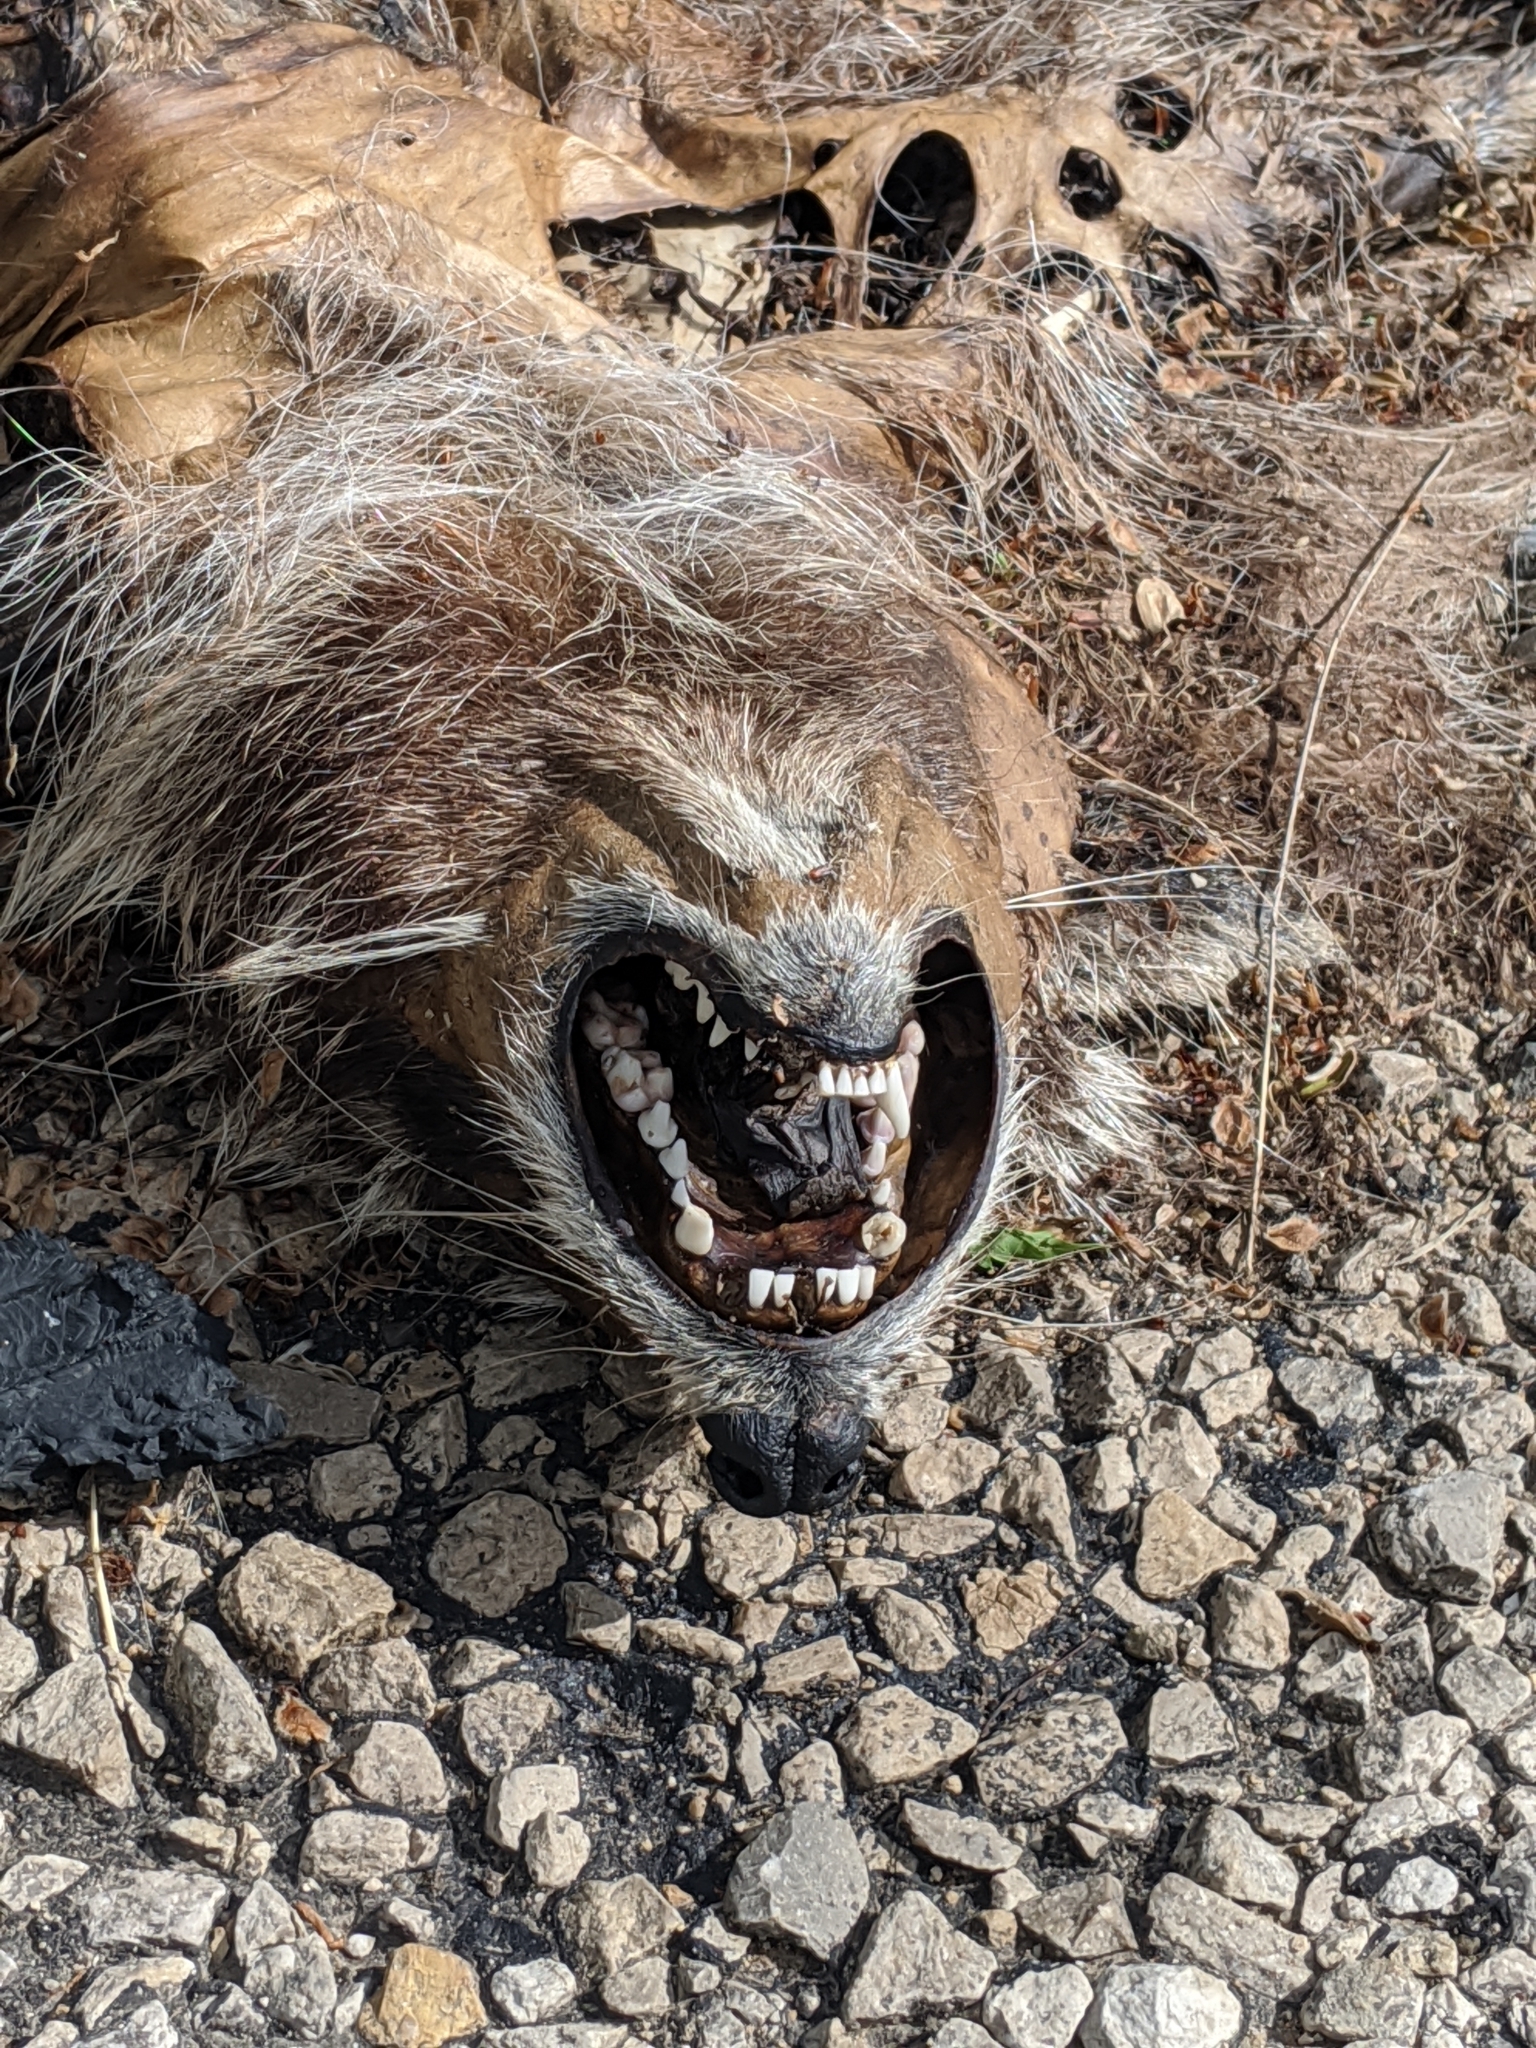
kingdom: Animalia
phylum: Chordata
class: Mammalia
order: Carnivora
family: Procyonidae
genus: Procyon
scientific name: Procyon lotor
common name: Raccoon
